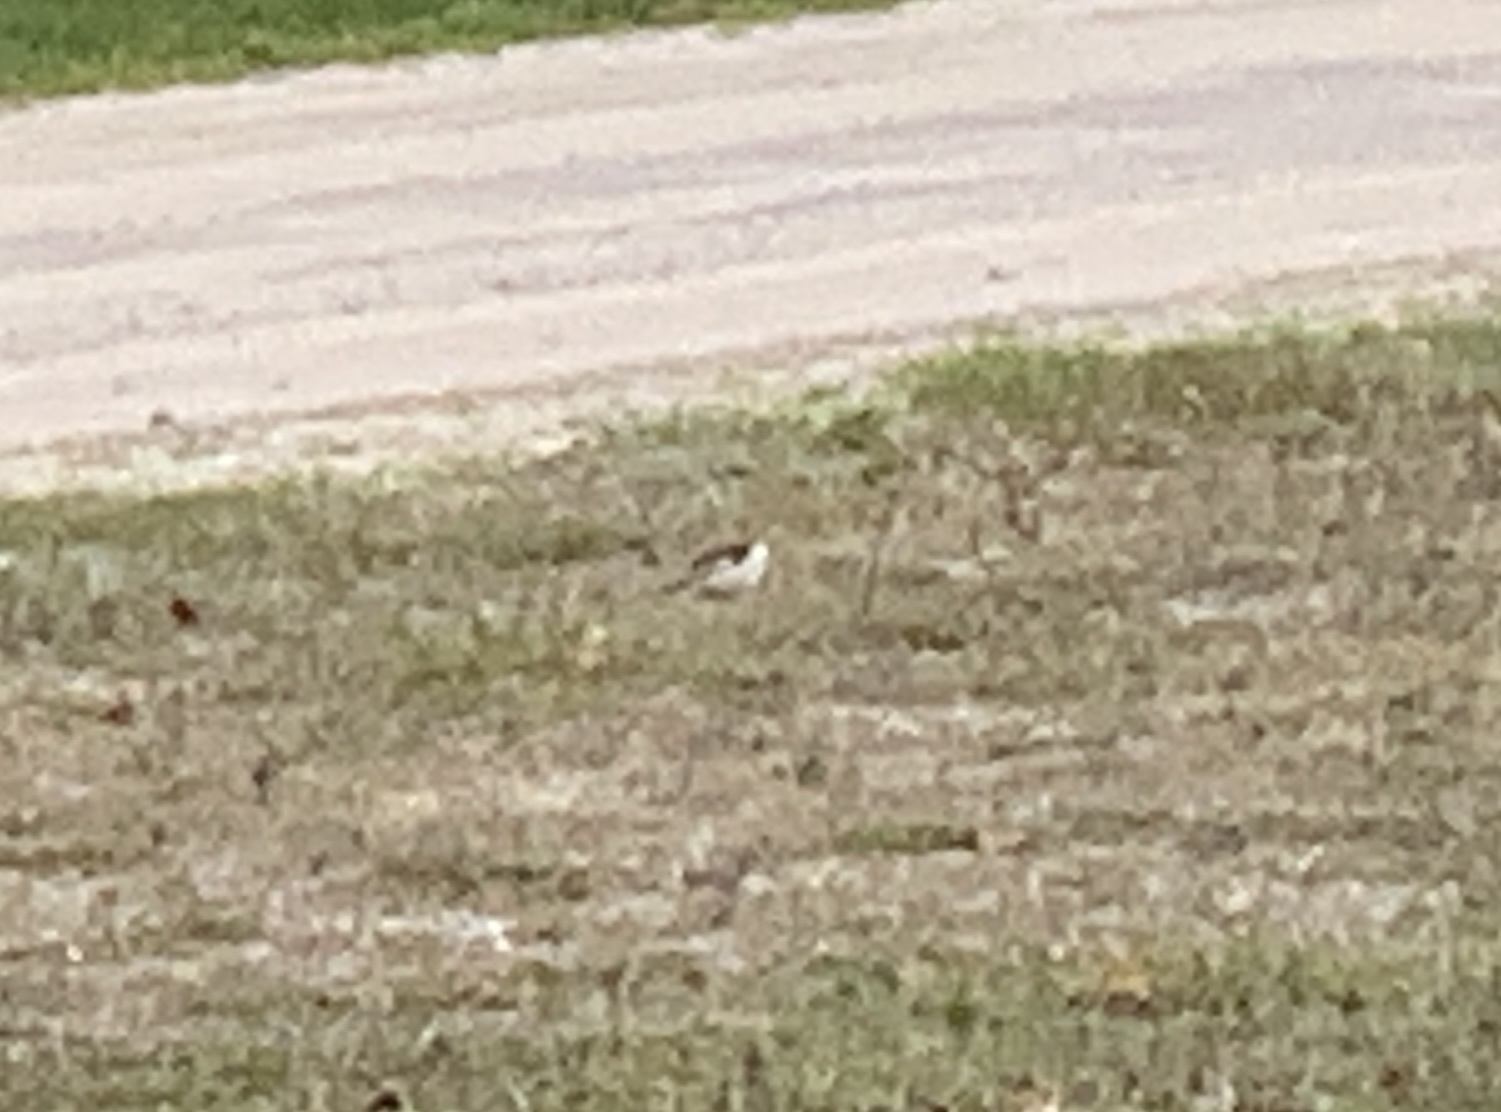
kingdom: Animalia
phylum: Chordata
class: Aves
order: Passeriformes
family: Calcariidae
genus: Plectrophenax
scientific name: Plectrophenax nivalis
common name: Snow bunting
